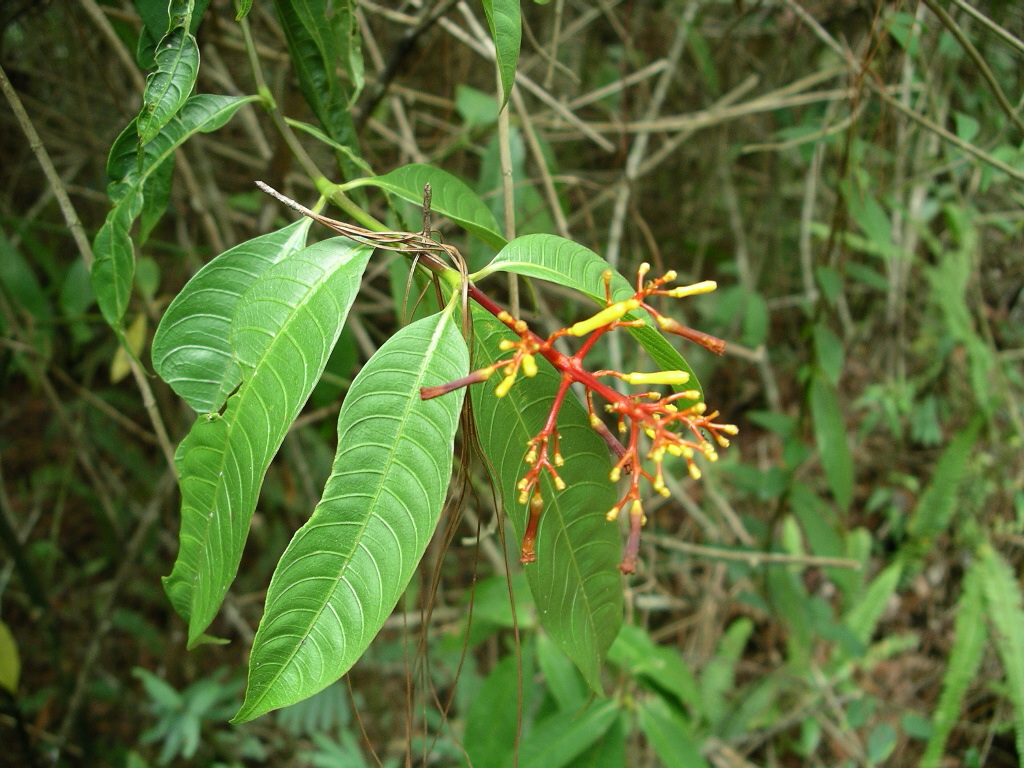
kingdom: Plantae
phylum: Tracheophyta
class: Magnoliopsida
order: Gentianales
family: Rubiaceae
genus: Palicourea
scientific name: Palicourea padifolia
